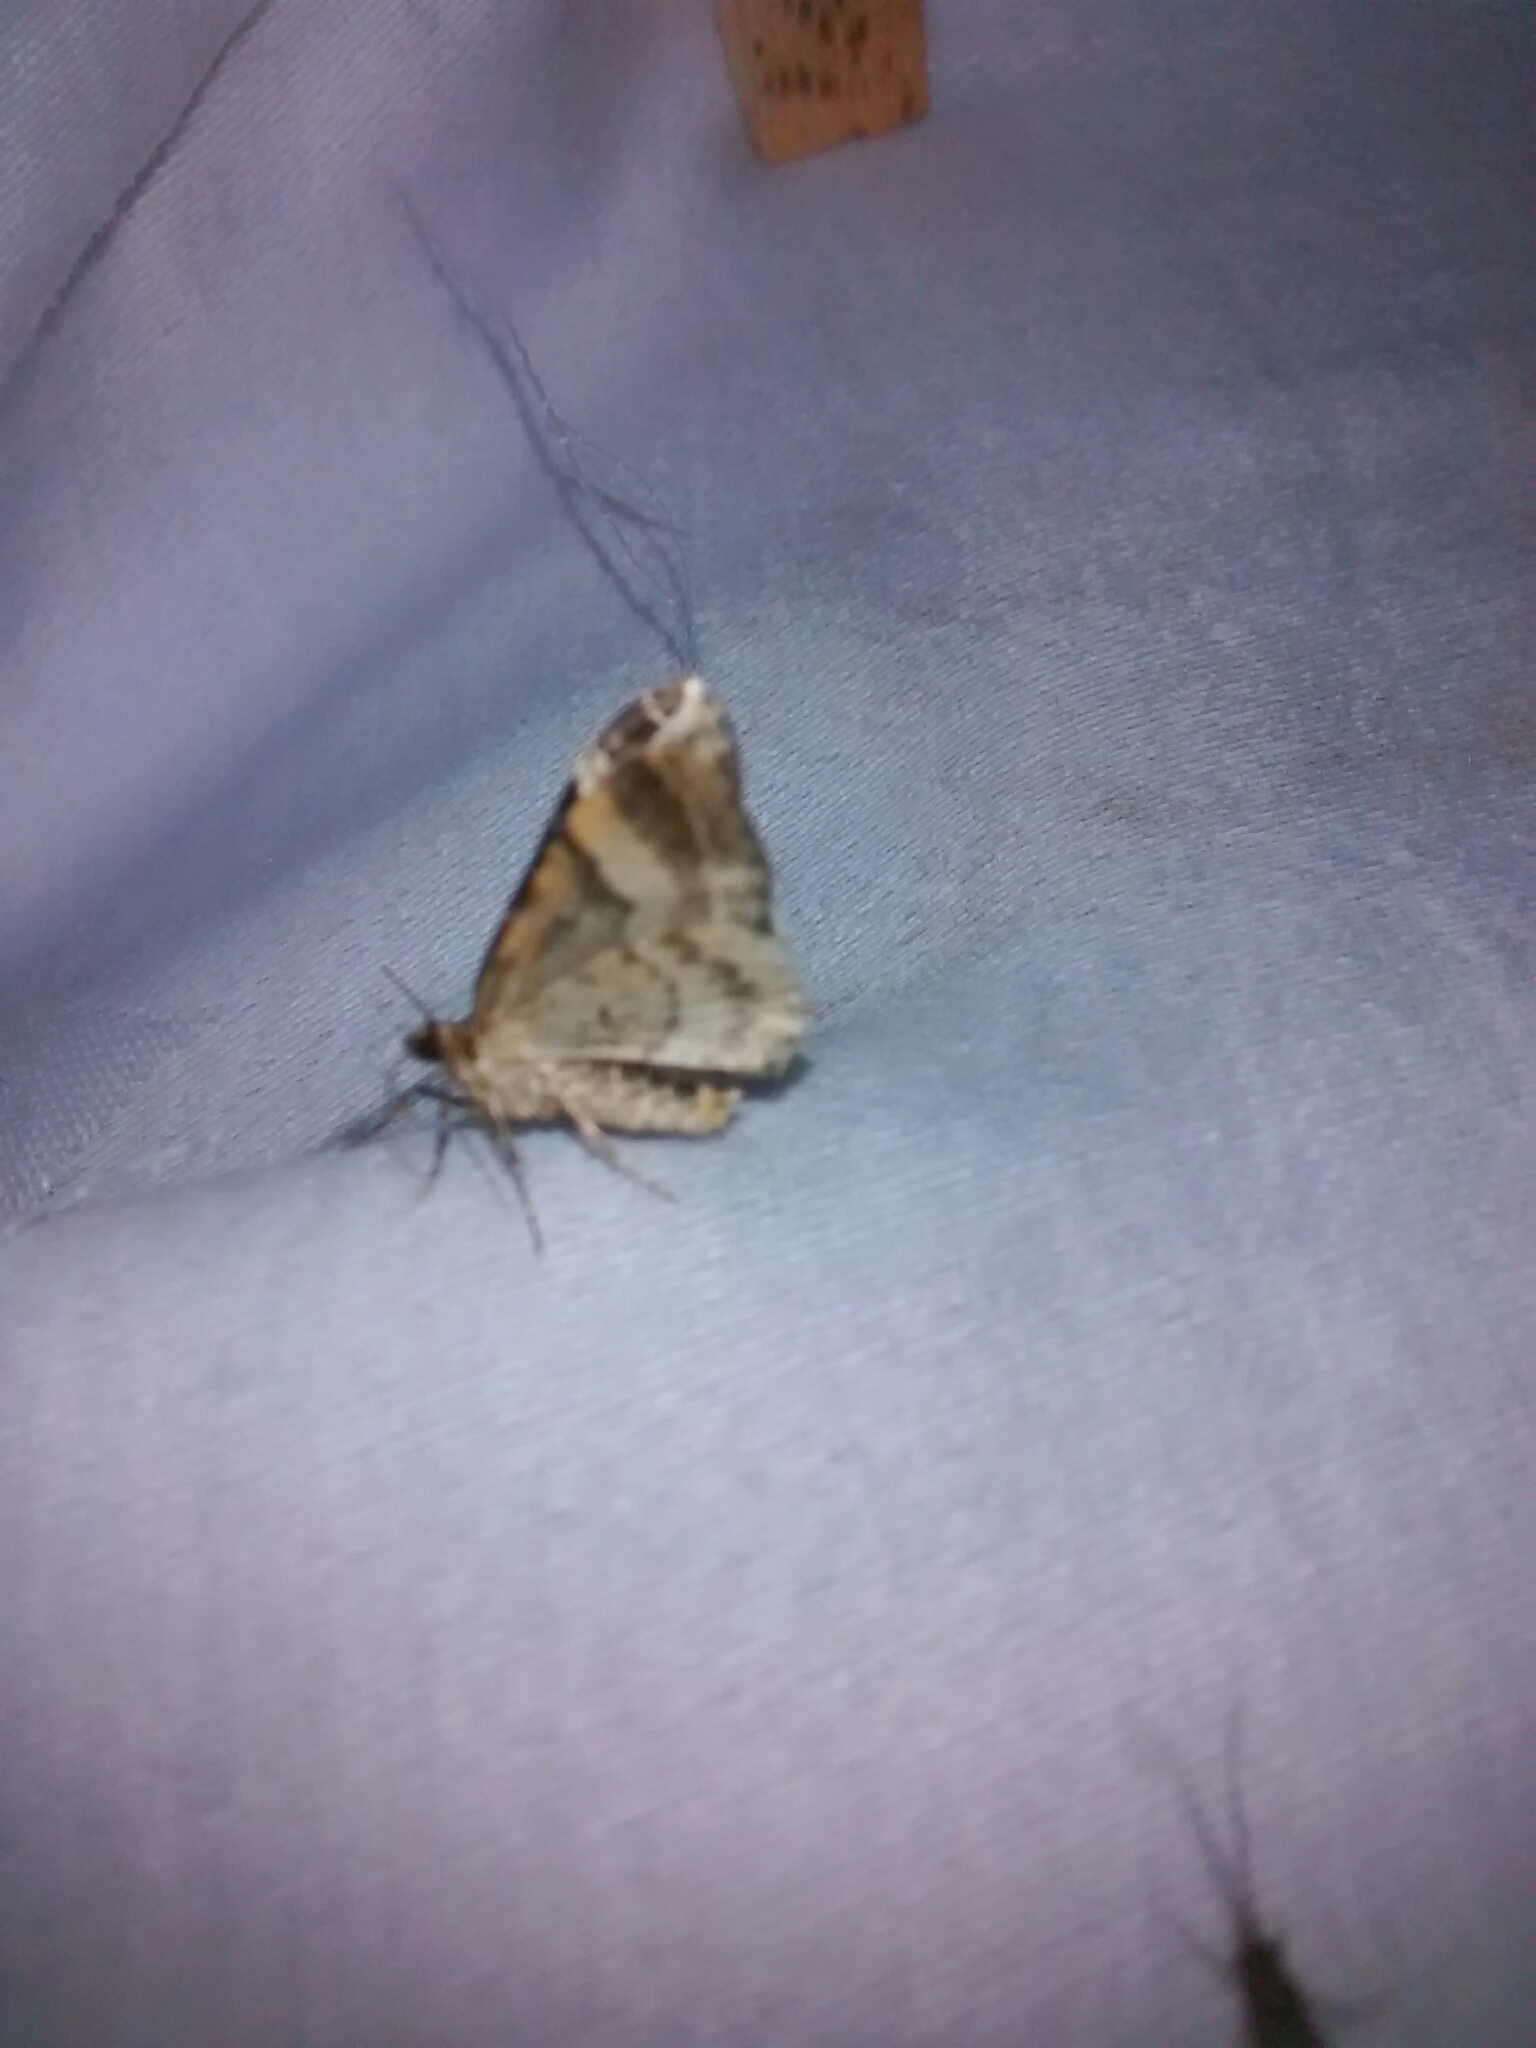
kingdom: Animalia
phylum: Arthropoda
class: Insecta
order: Lepidoptera
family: Geometridae
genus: Euphyia
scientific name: Euphyia intermediata
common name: Sharp-angled carpet
